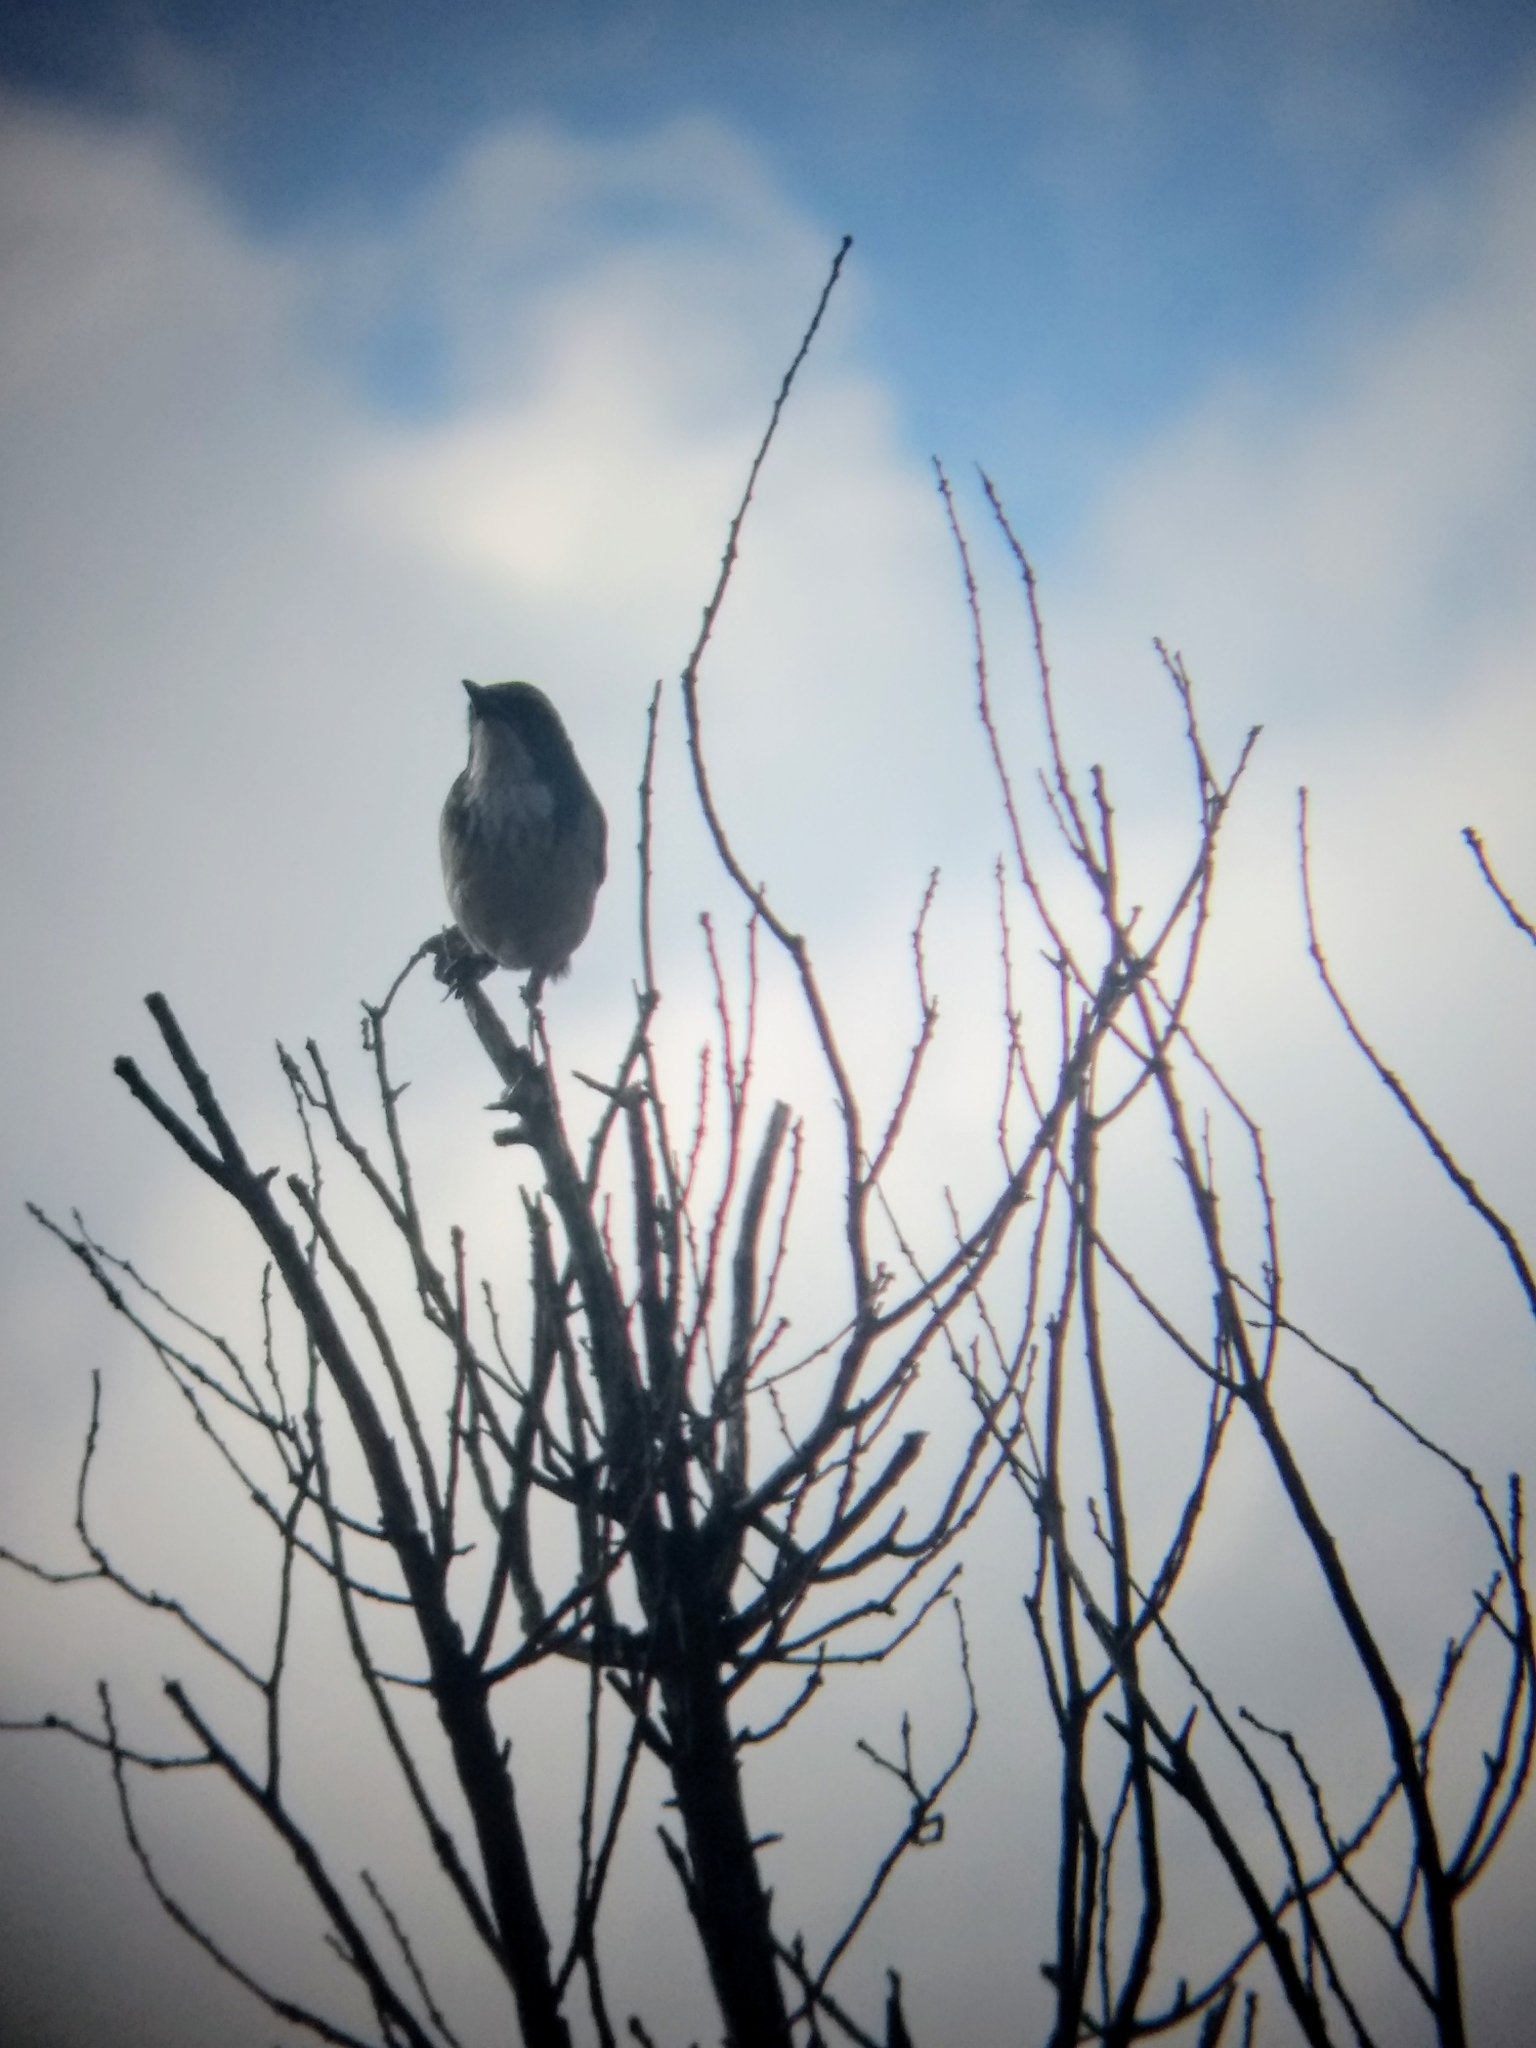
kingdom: Animalia
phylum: Chordata
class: Aves
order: Passeriformes
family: Corvidae
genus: Aphelocoma
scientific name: Aphelocoma californica
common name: California scrub-jay
